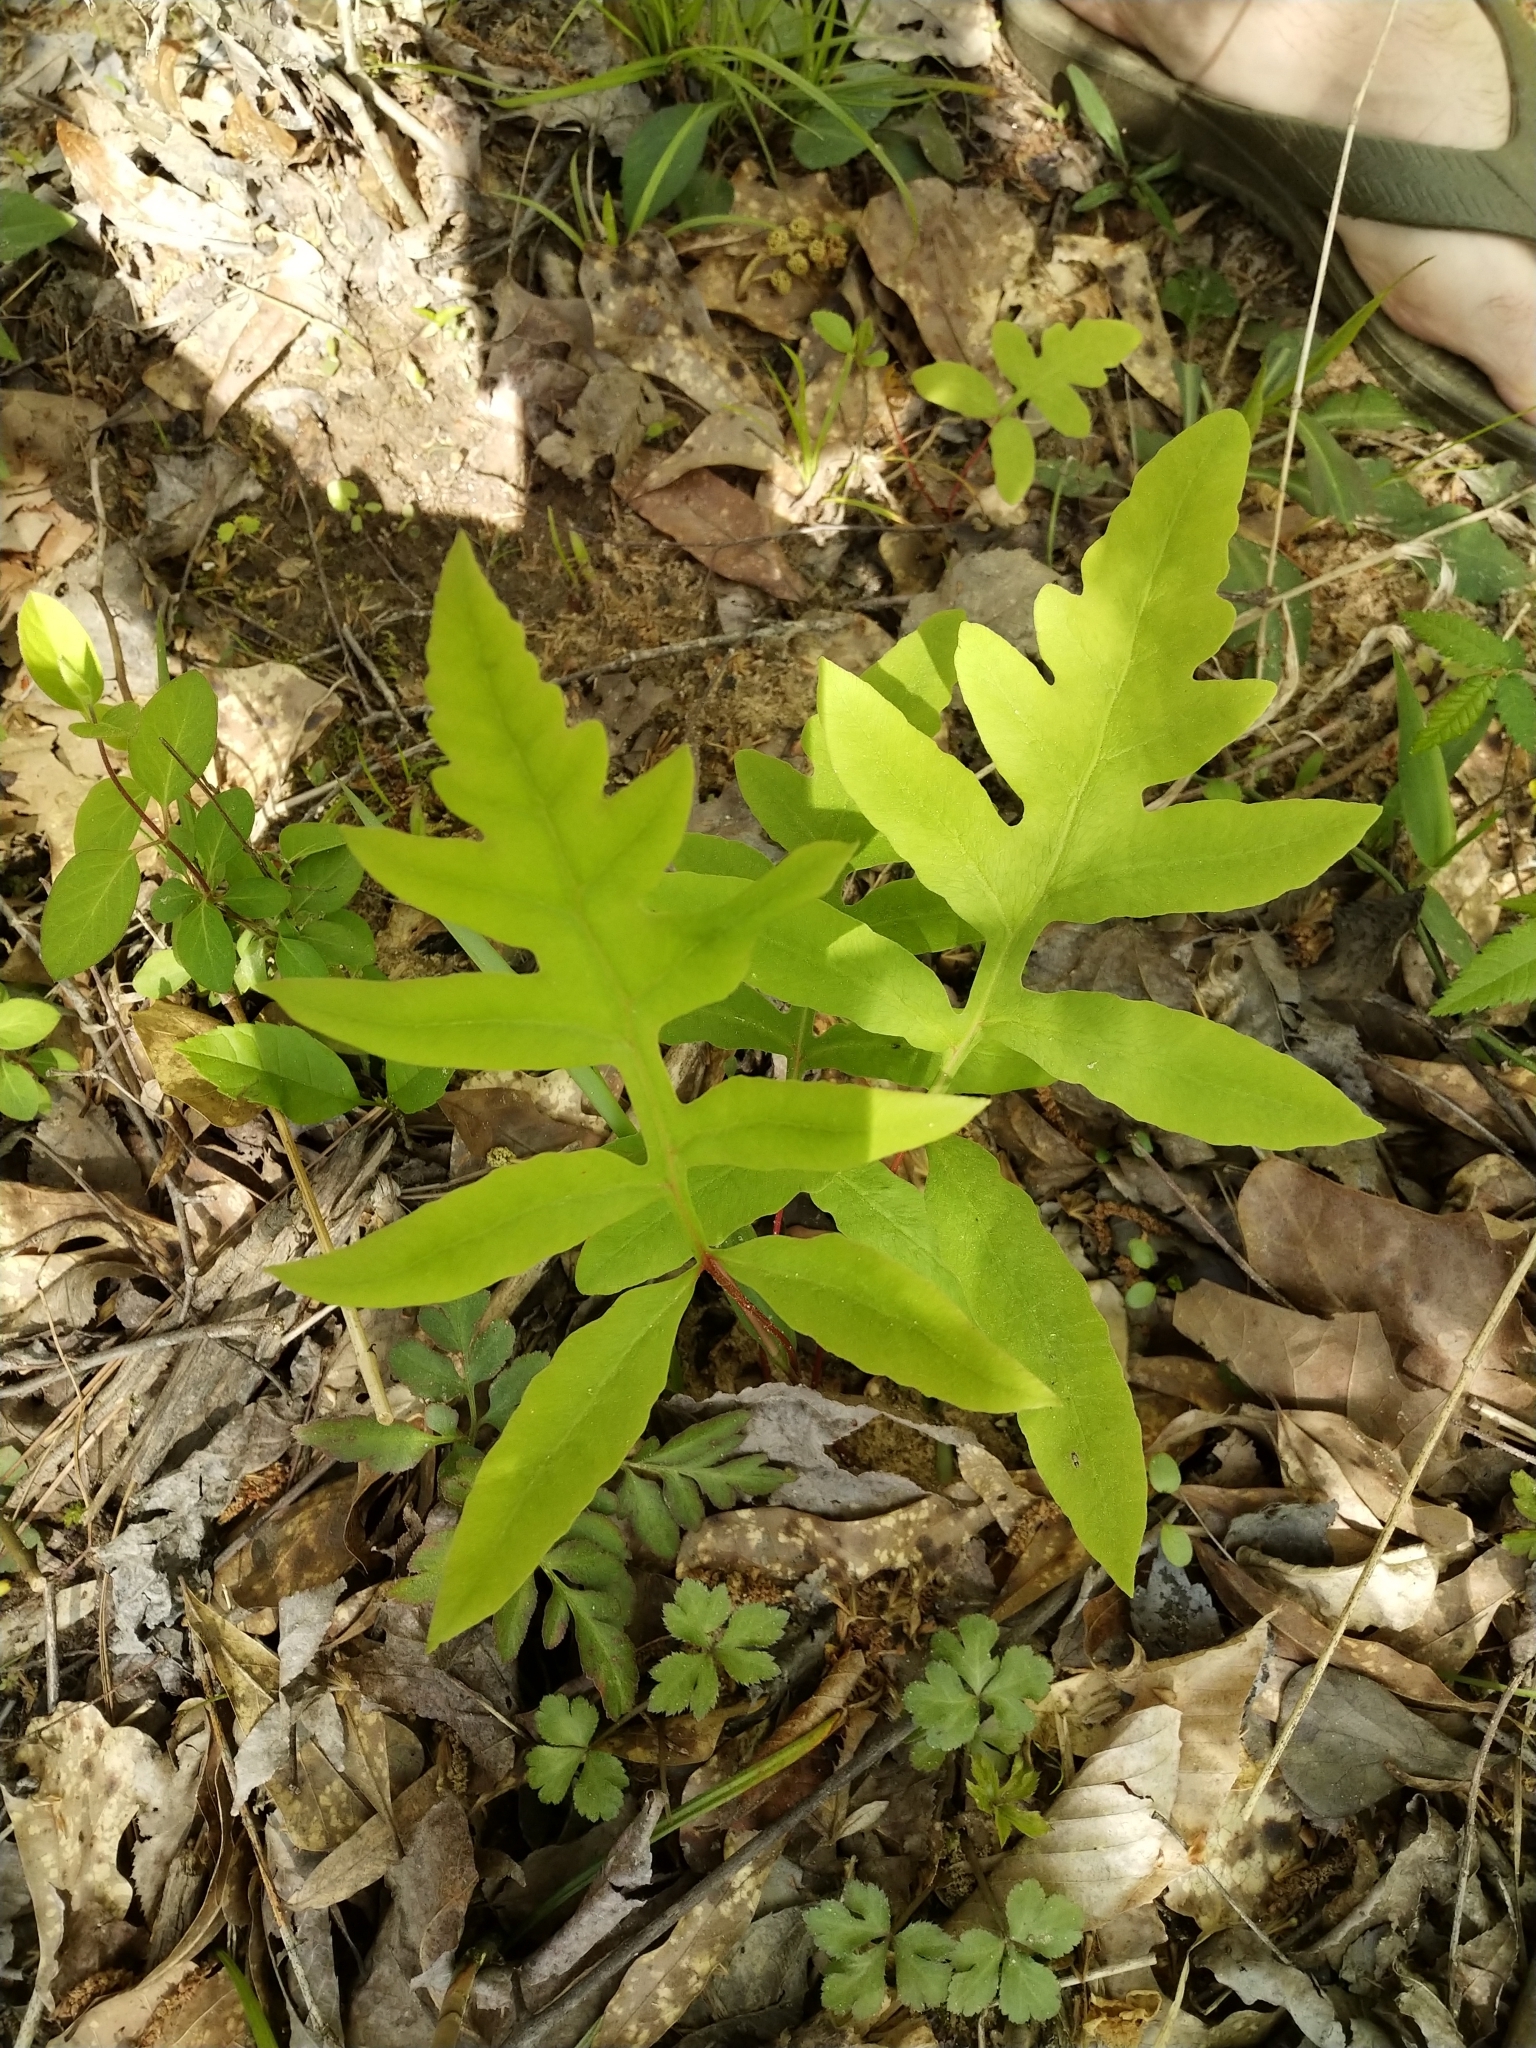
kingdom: Plantae
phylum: Tracheophyta
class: Polypodiopsida
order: Polypodiales
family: Onocleaceae
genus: Onoclea
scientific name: Onoclea sensibilis
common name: Sensitive fern
